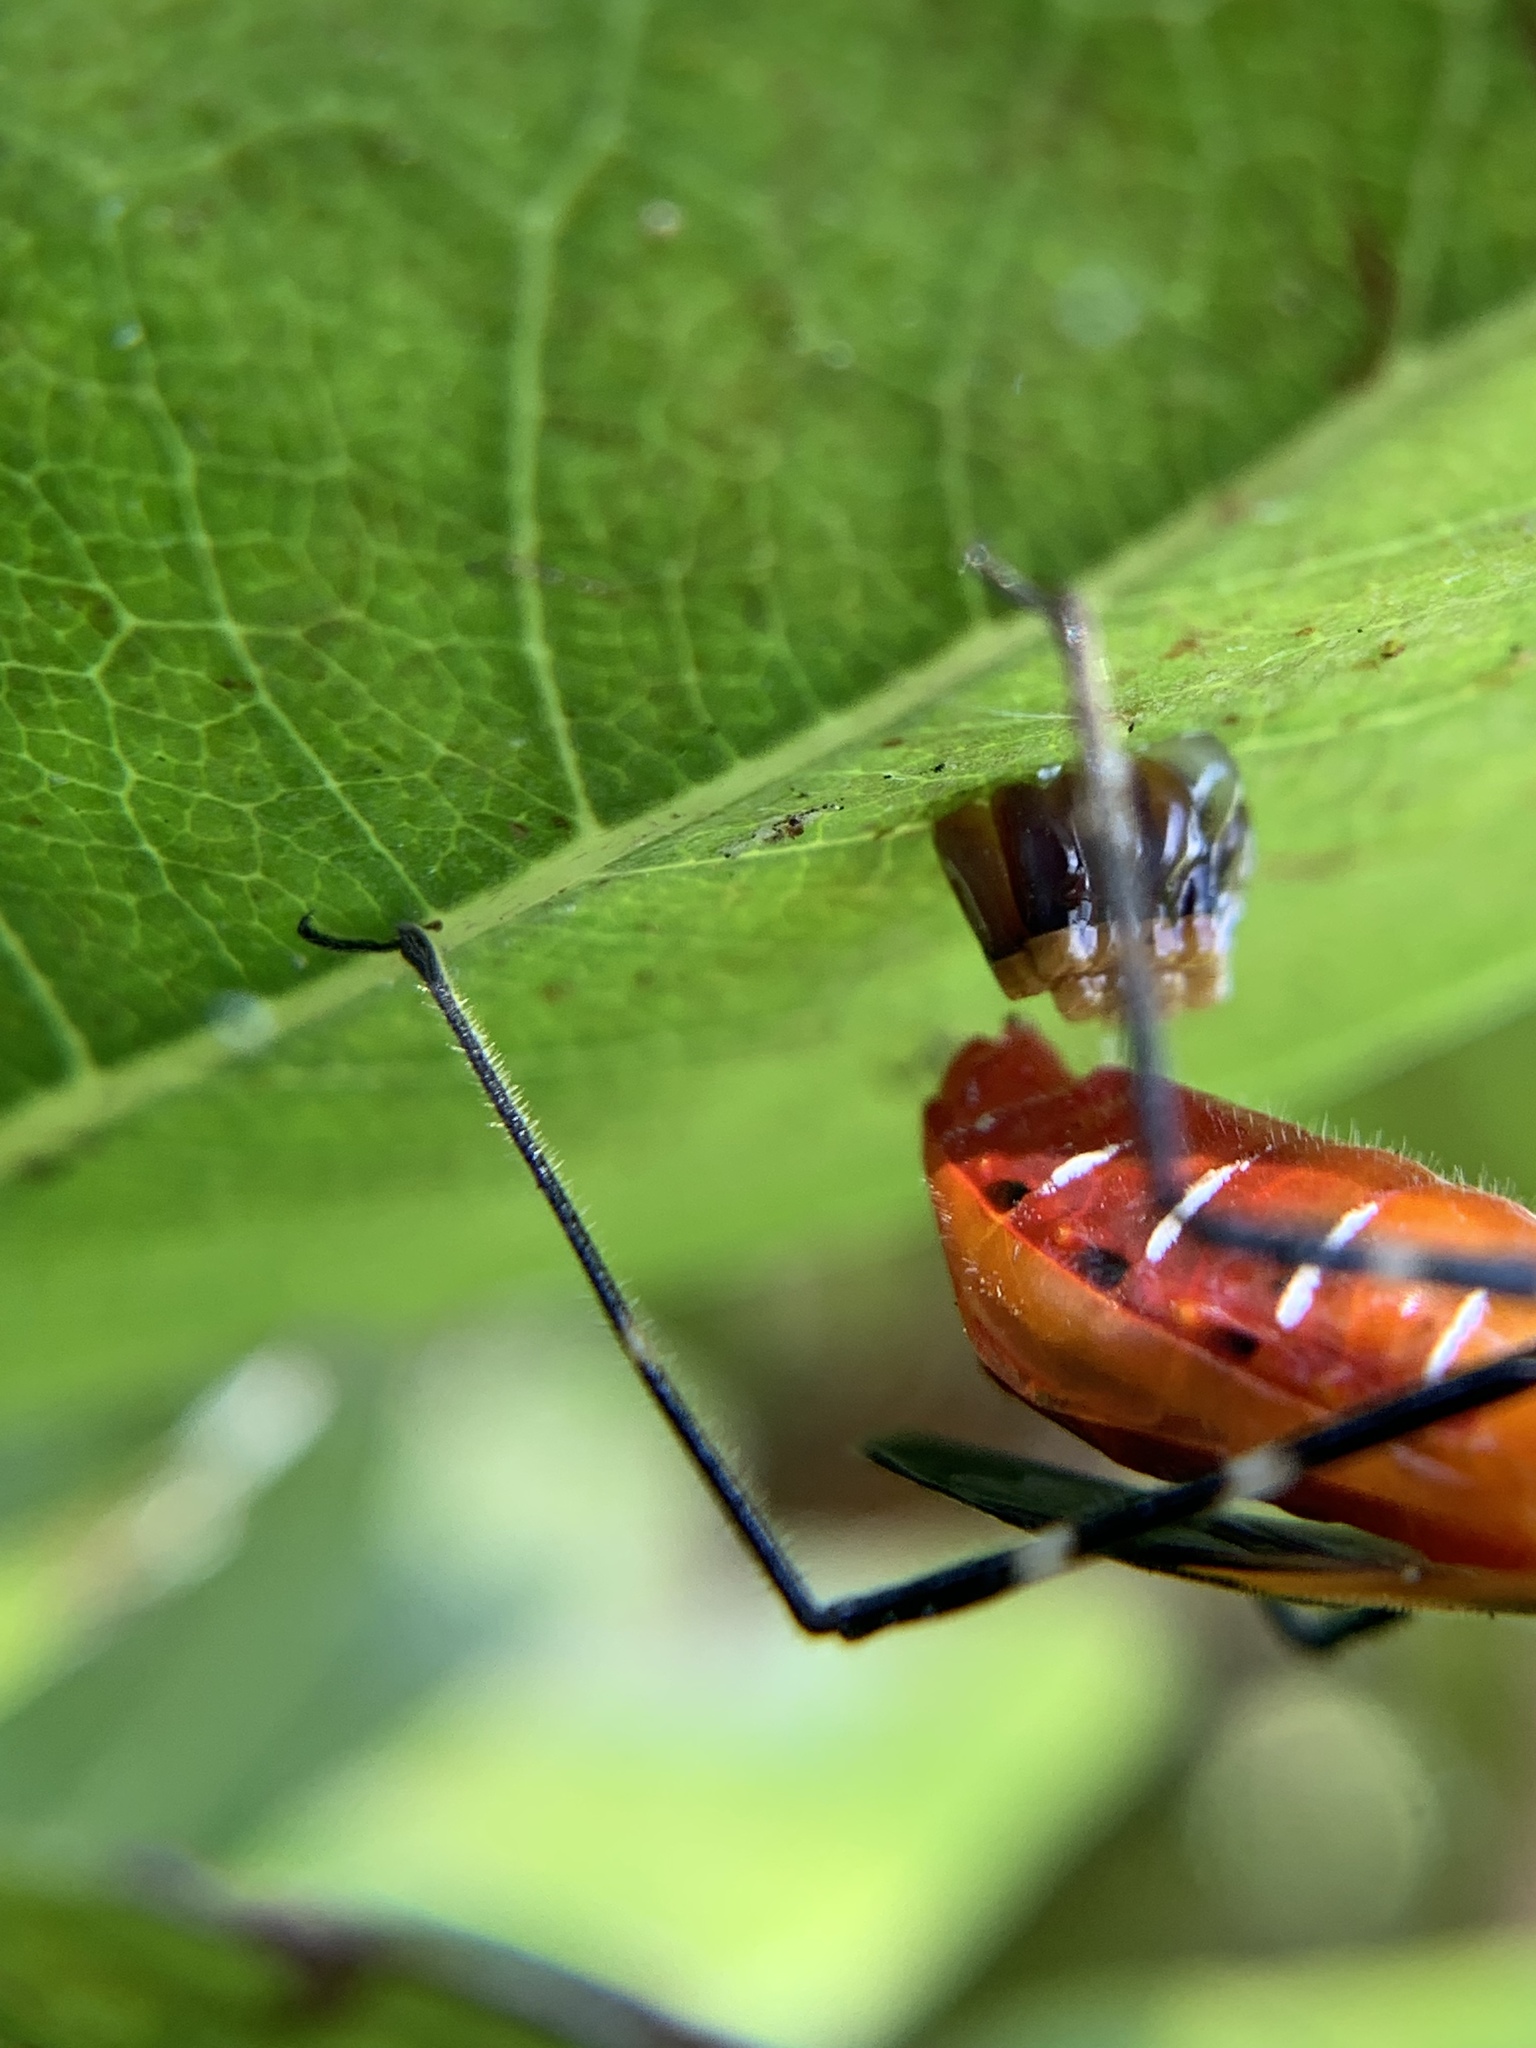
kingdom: Animalia
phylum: Arthropoda
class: Insecta
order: Hemiptera
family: Reduviidae
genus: Zelus
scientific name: Zelus longipes
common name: Milkweed assassin bug
